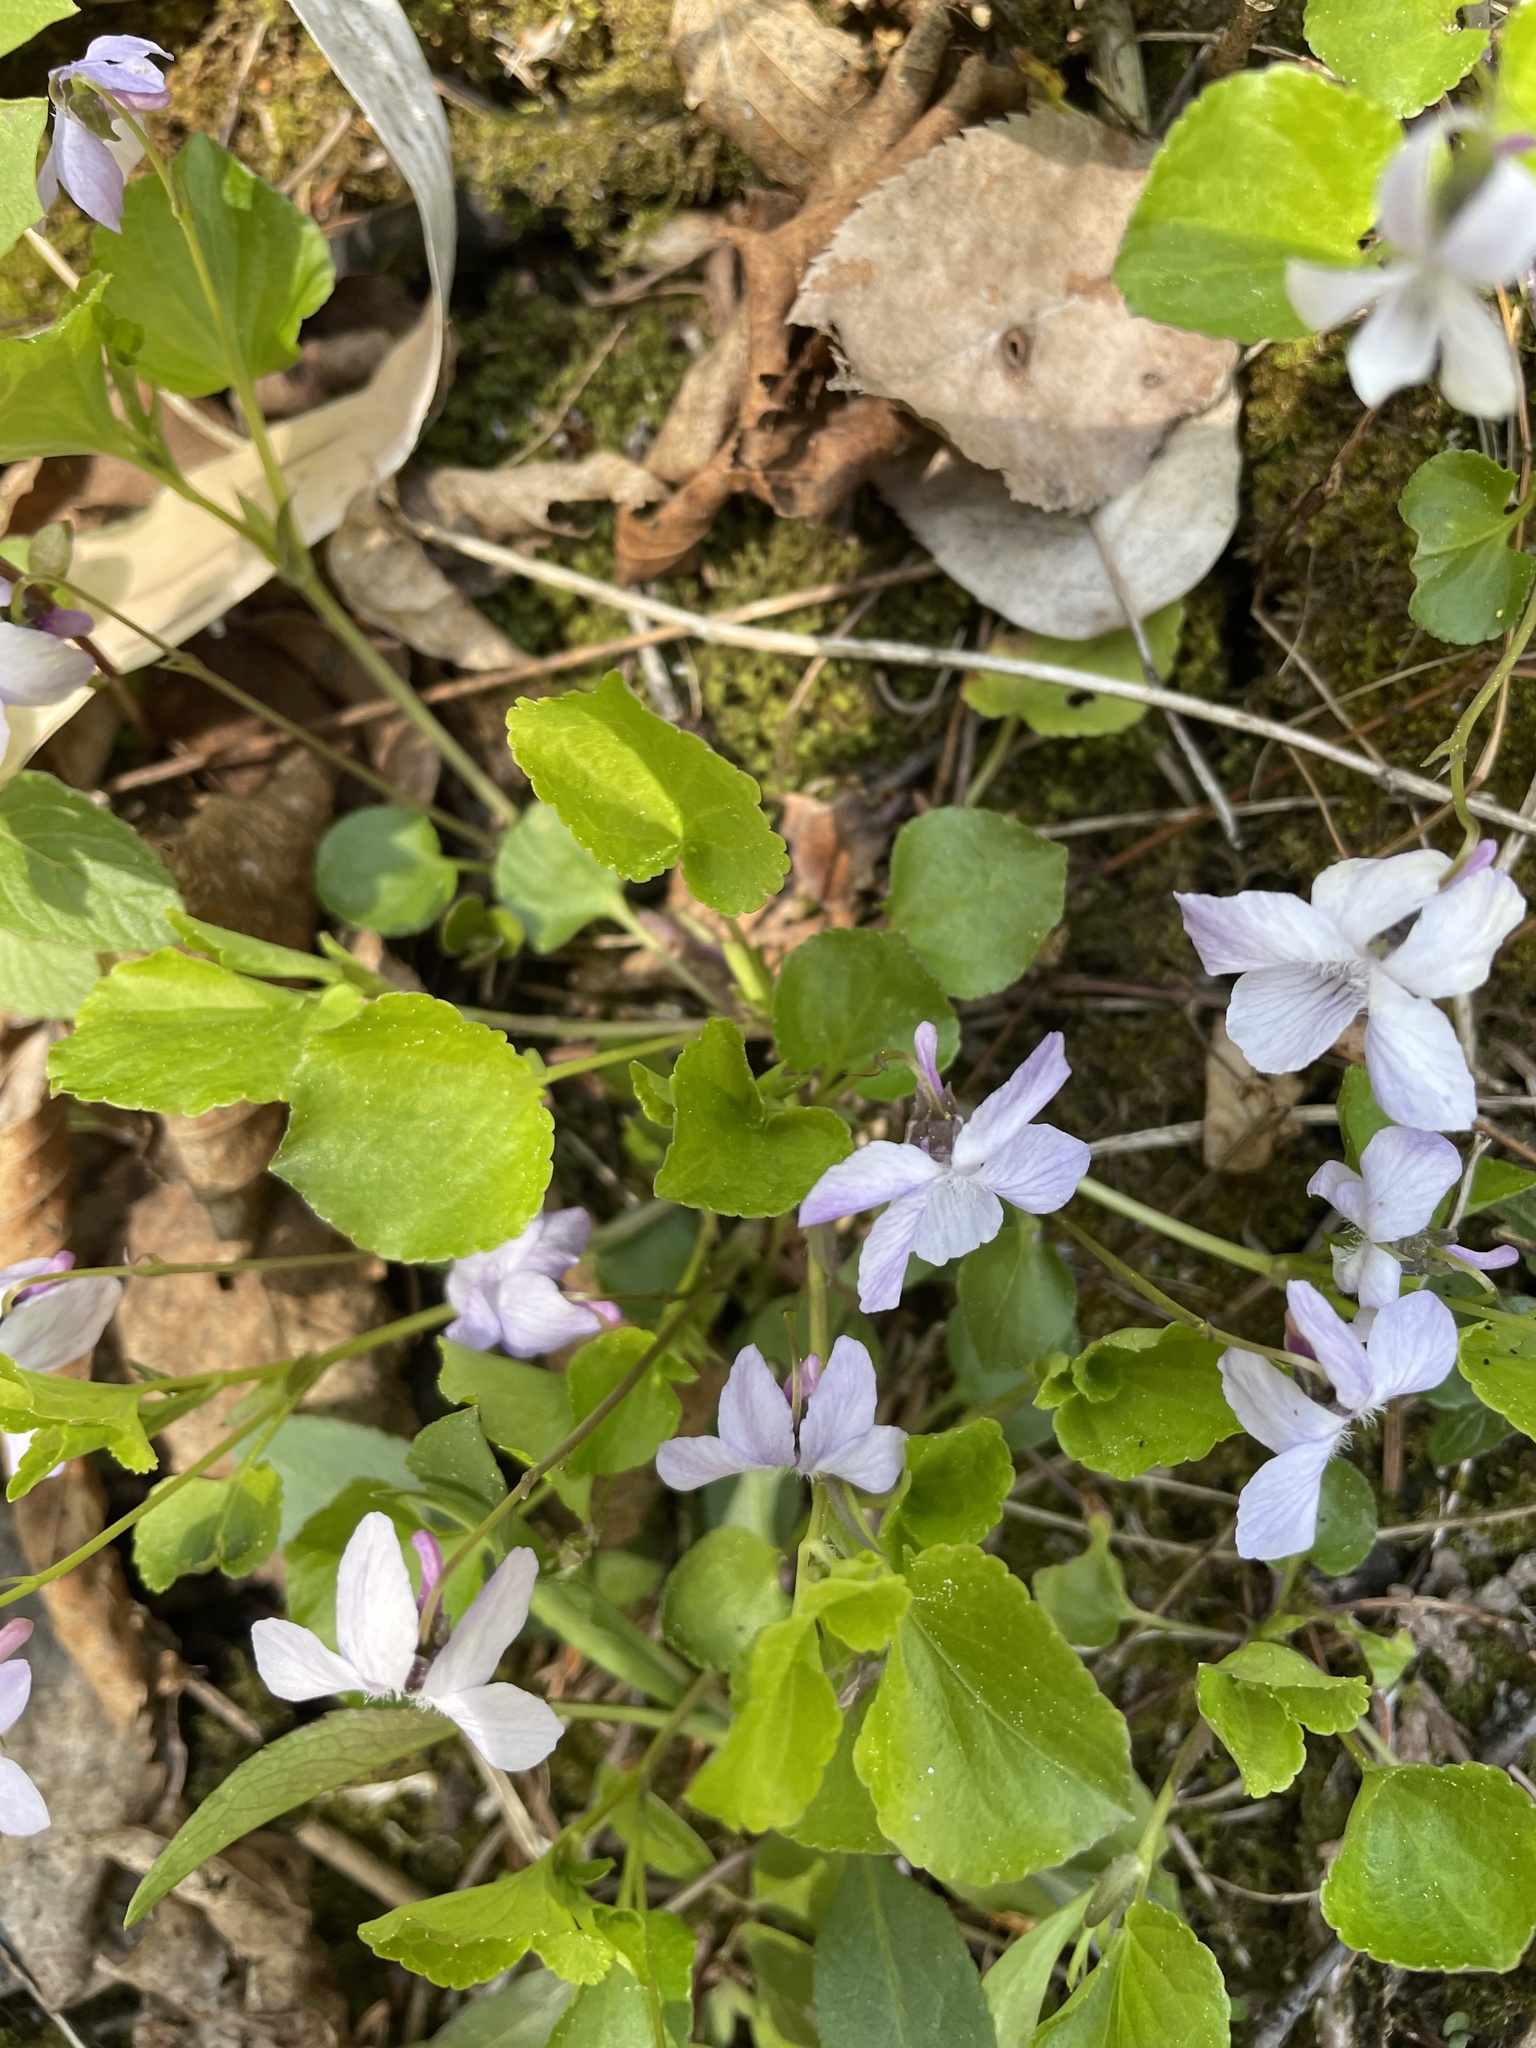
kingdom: Plantae
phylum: Tracheophyta
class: Magnoliopsida
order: Malpighiales
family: Violaceae
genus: Viola
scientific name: Viola labradorica
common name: Labrador violet
